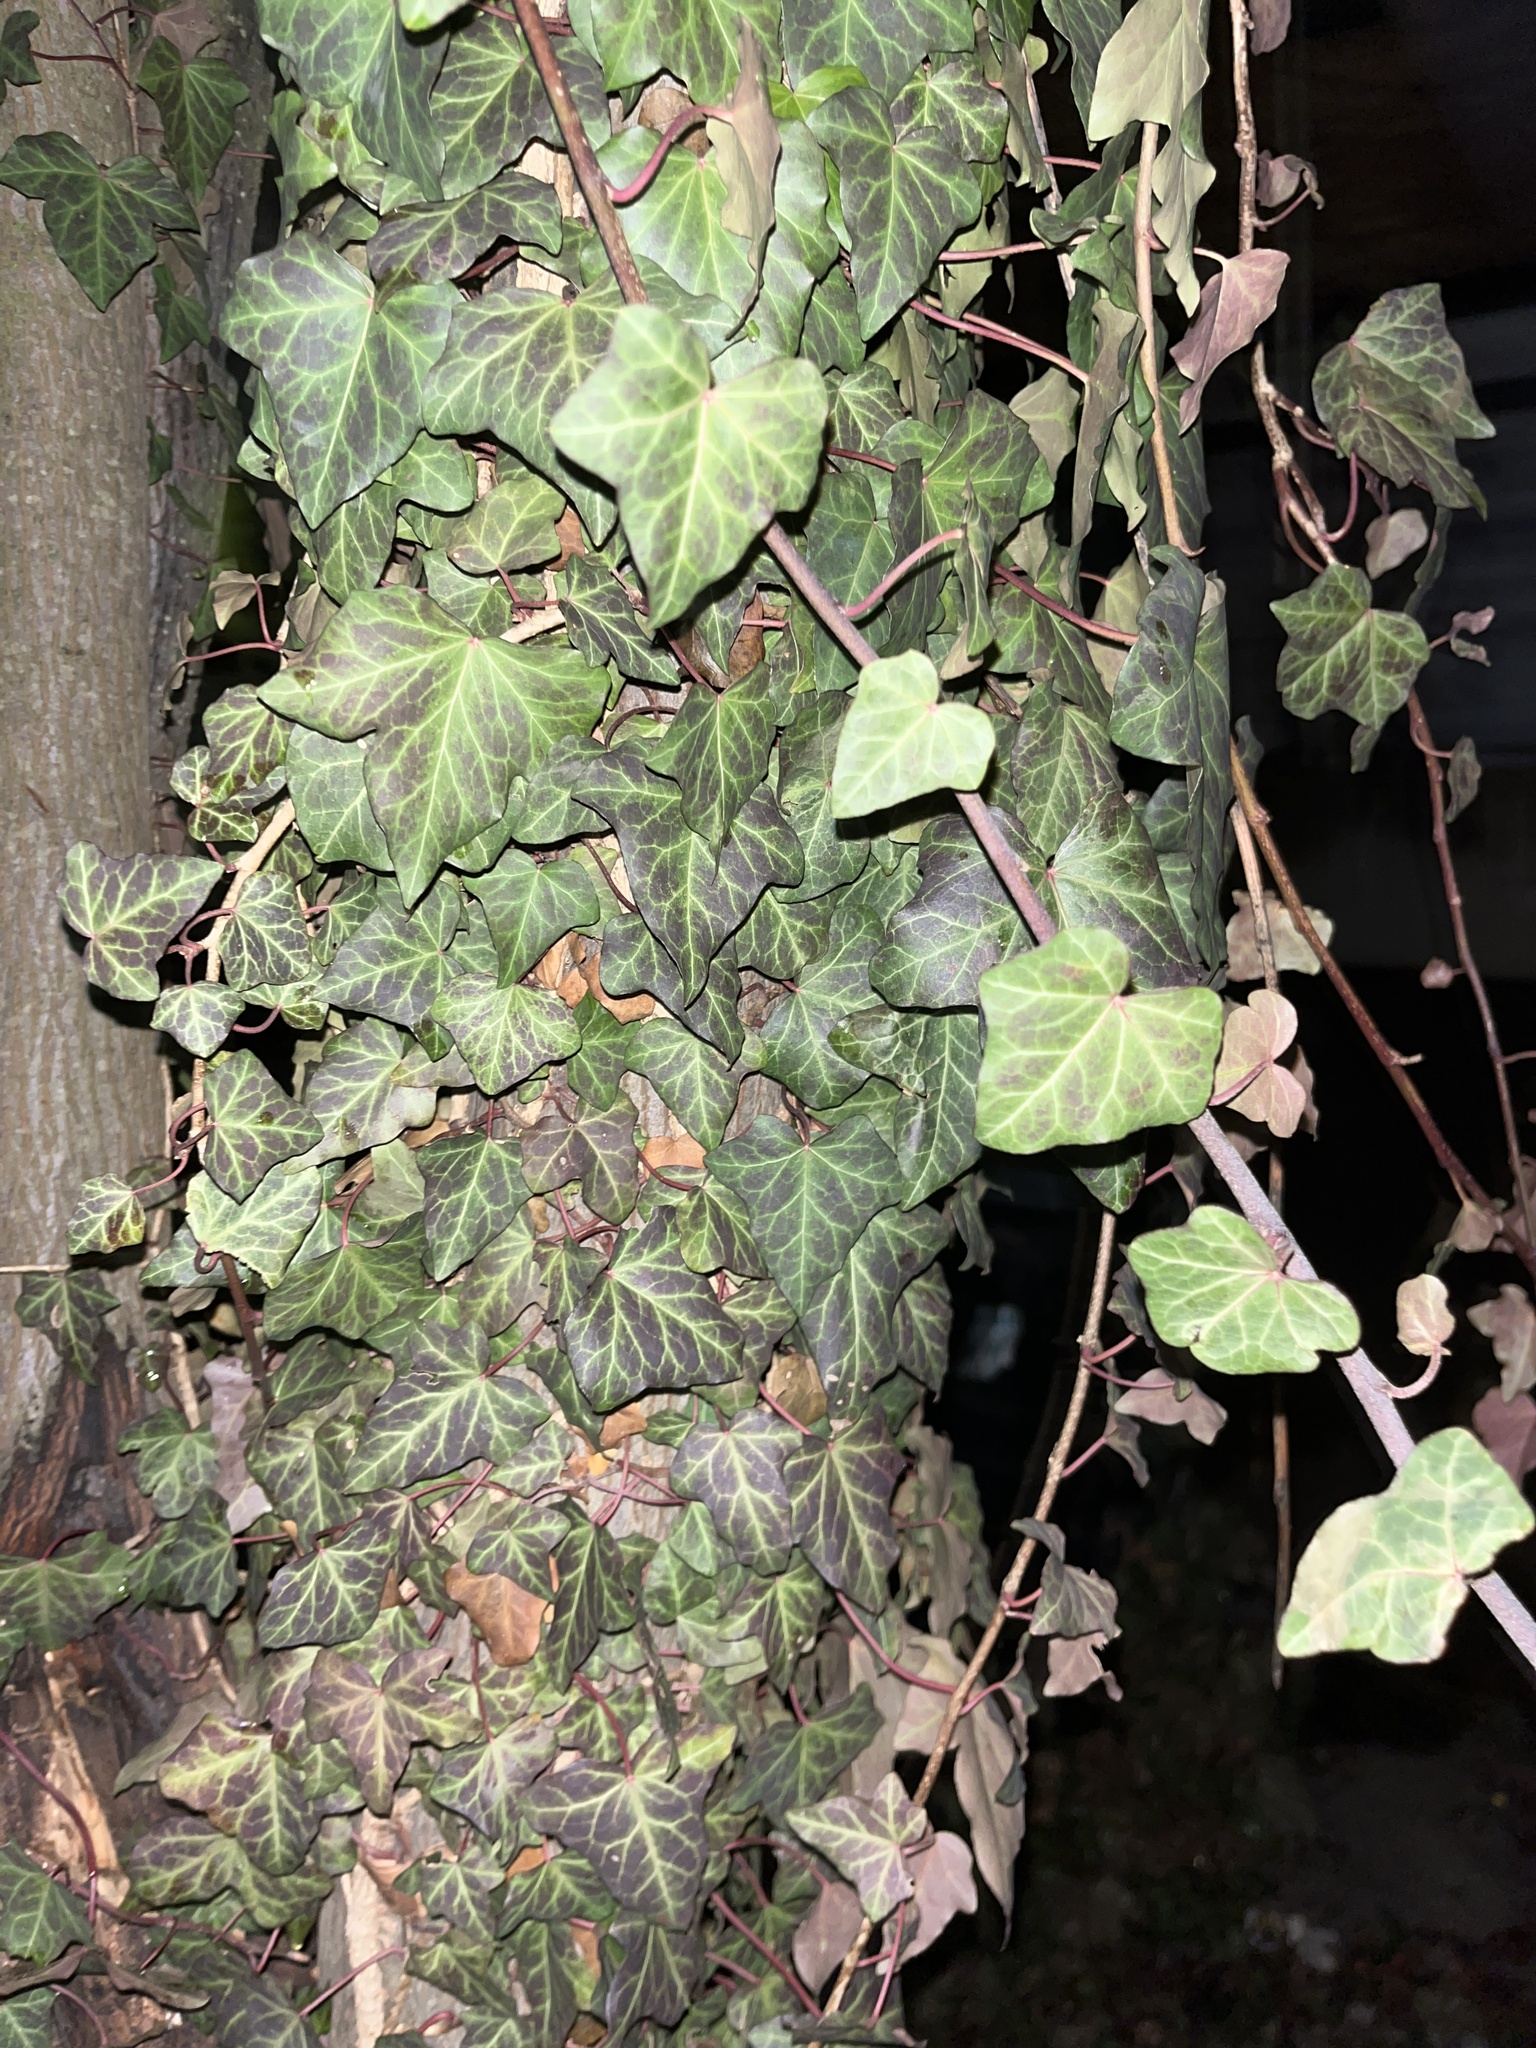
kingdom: Plantae
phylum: Tracheophyta
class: Magnoliopsida
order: Apiales
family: Araliaceae
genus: Hedera
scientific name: Hedera helix
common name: Ivy
